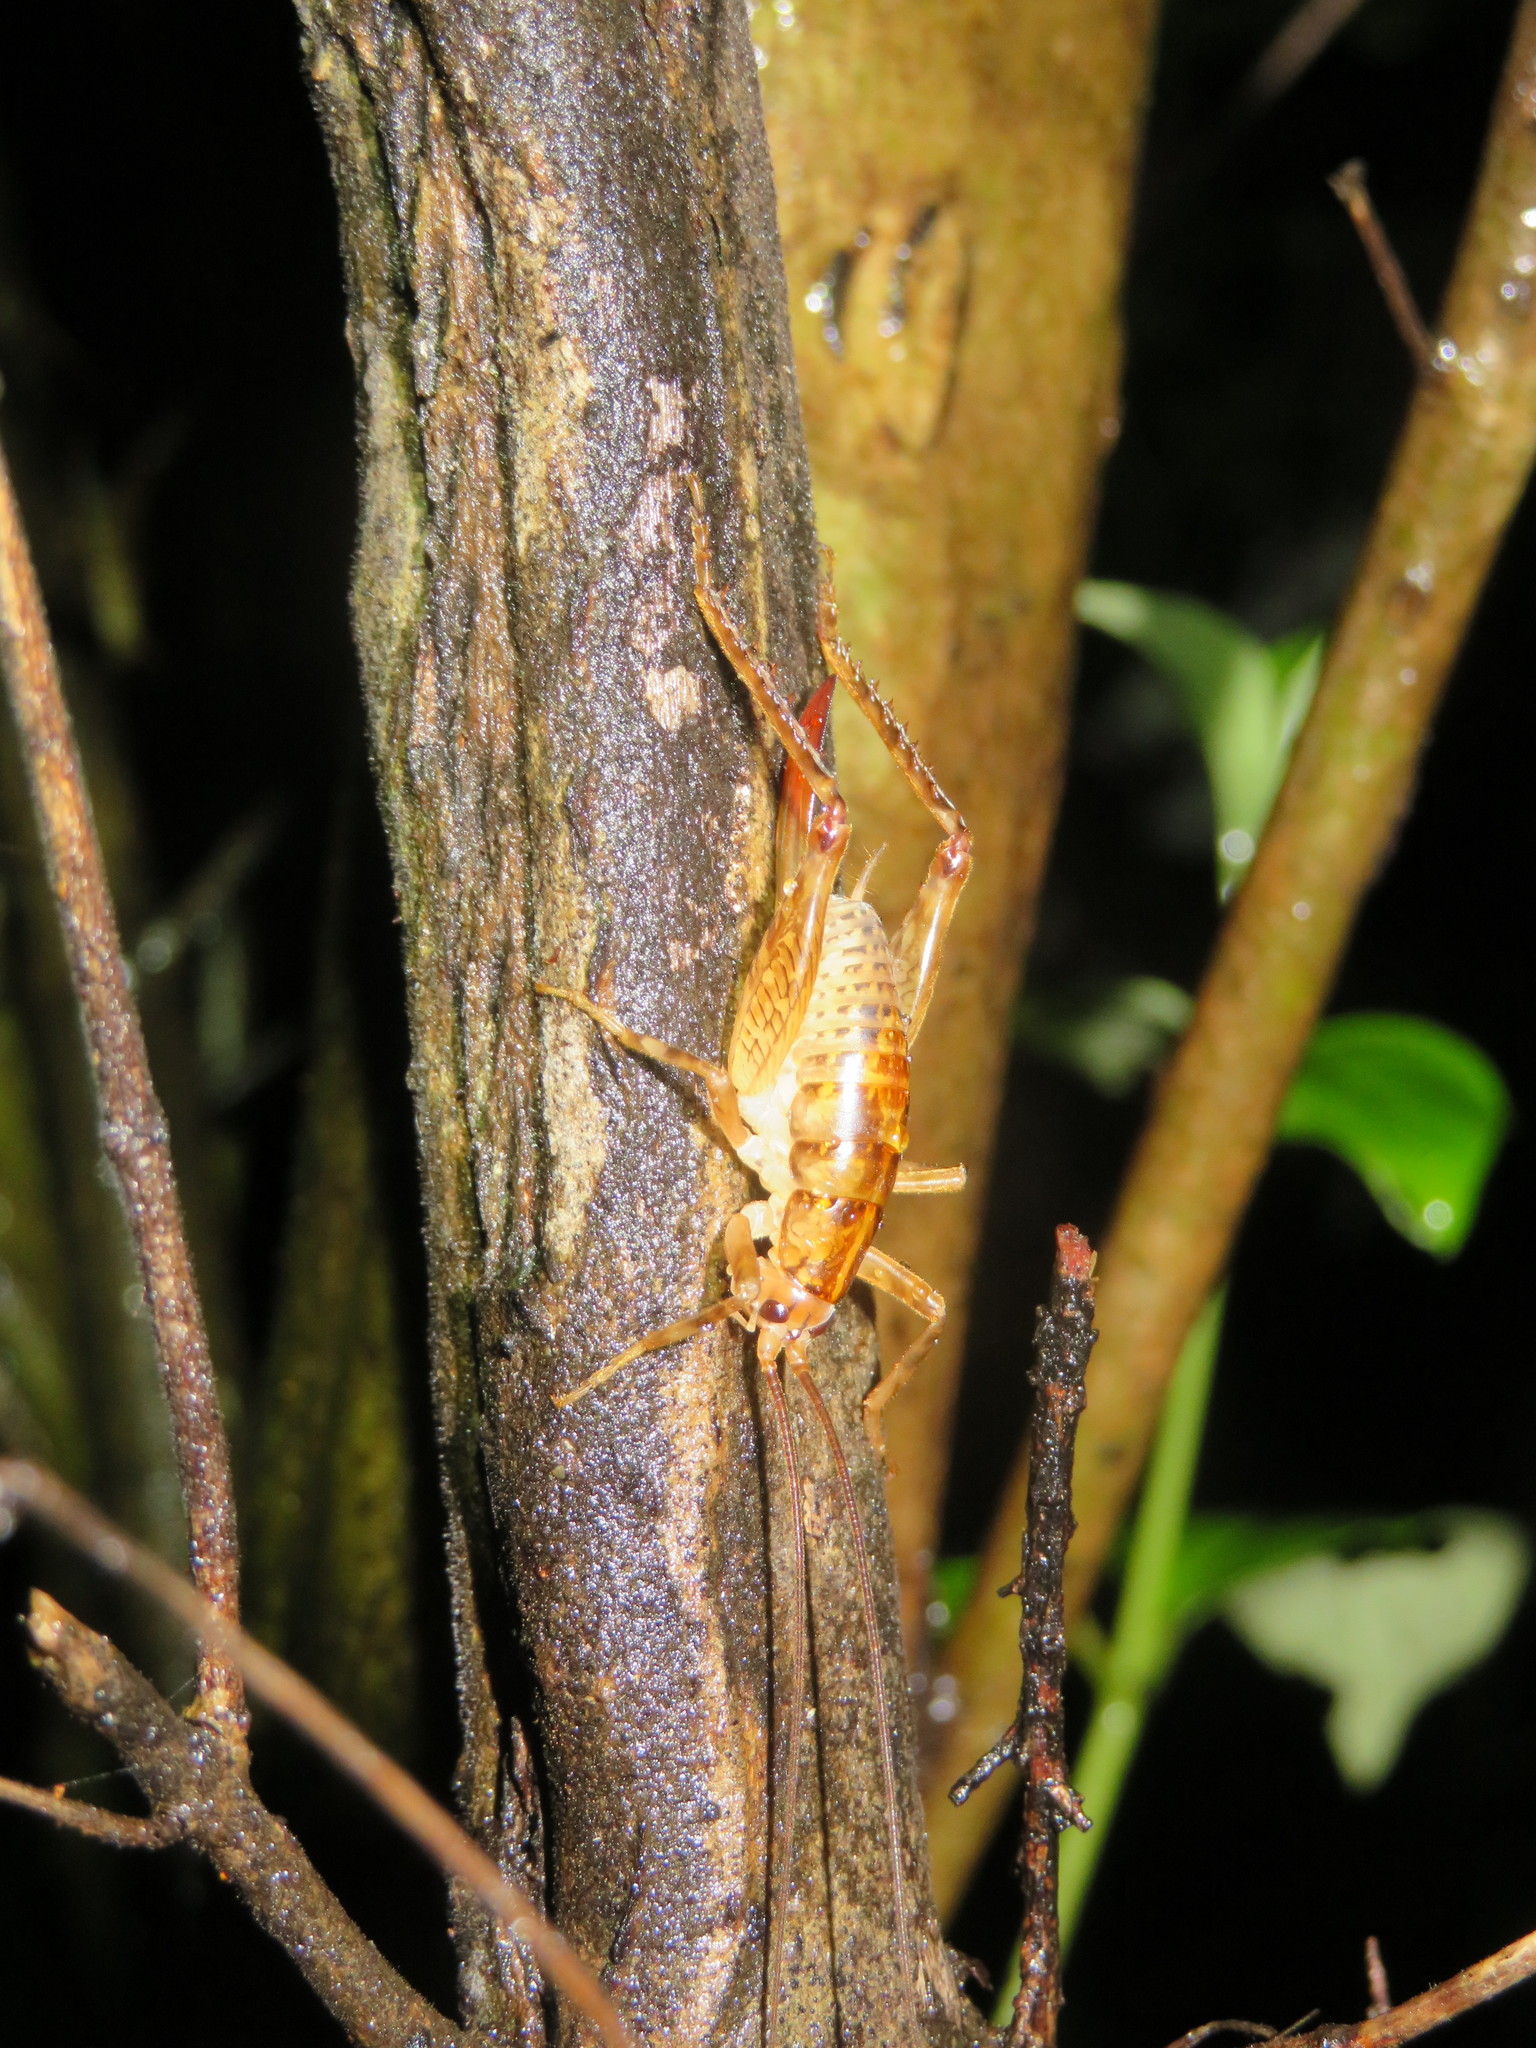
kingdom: Animalia
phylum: Arthropoda
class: Insecta
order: Orthoptera
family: Rhaphidophoridae
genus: Talitropsis
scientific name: Talitropsis sedilloti
